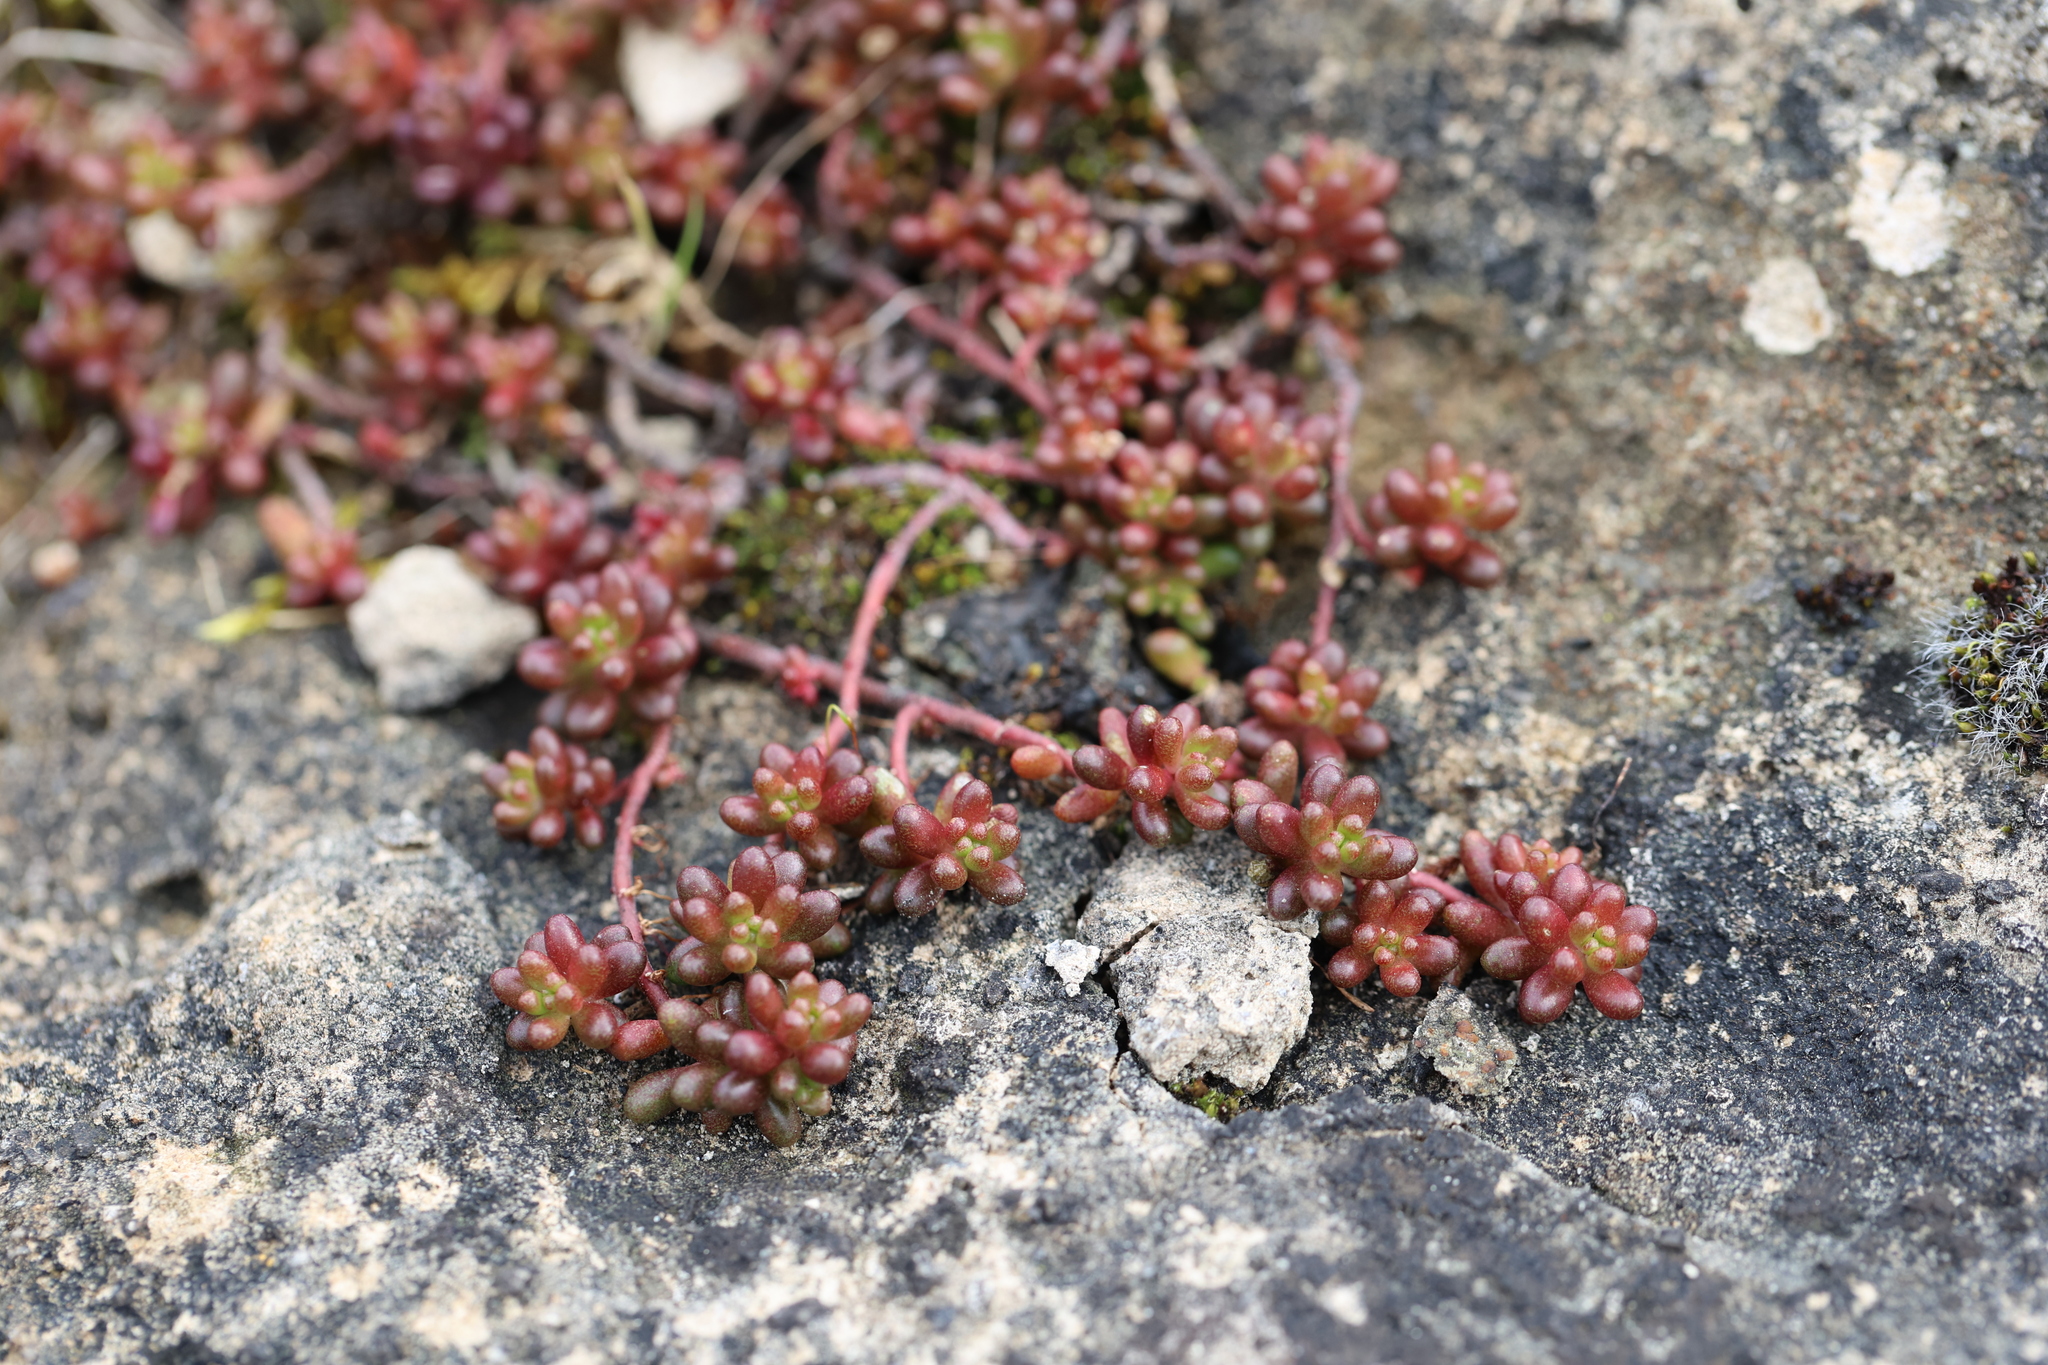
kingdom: Plantae
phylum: Tracheophyta
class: Magnoliopsida
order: Saxifragales
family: Crassulaceae
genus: Sedum
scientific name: Sedum album
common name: White stonecrop
